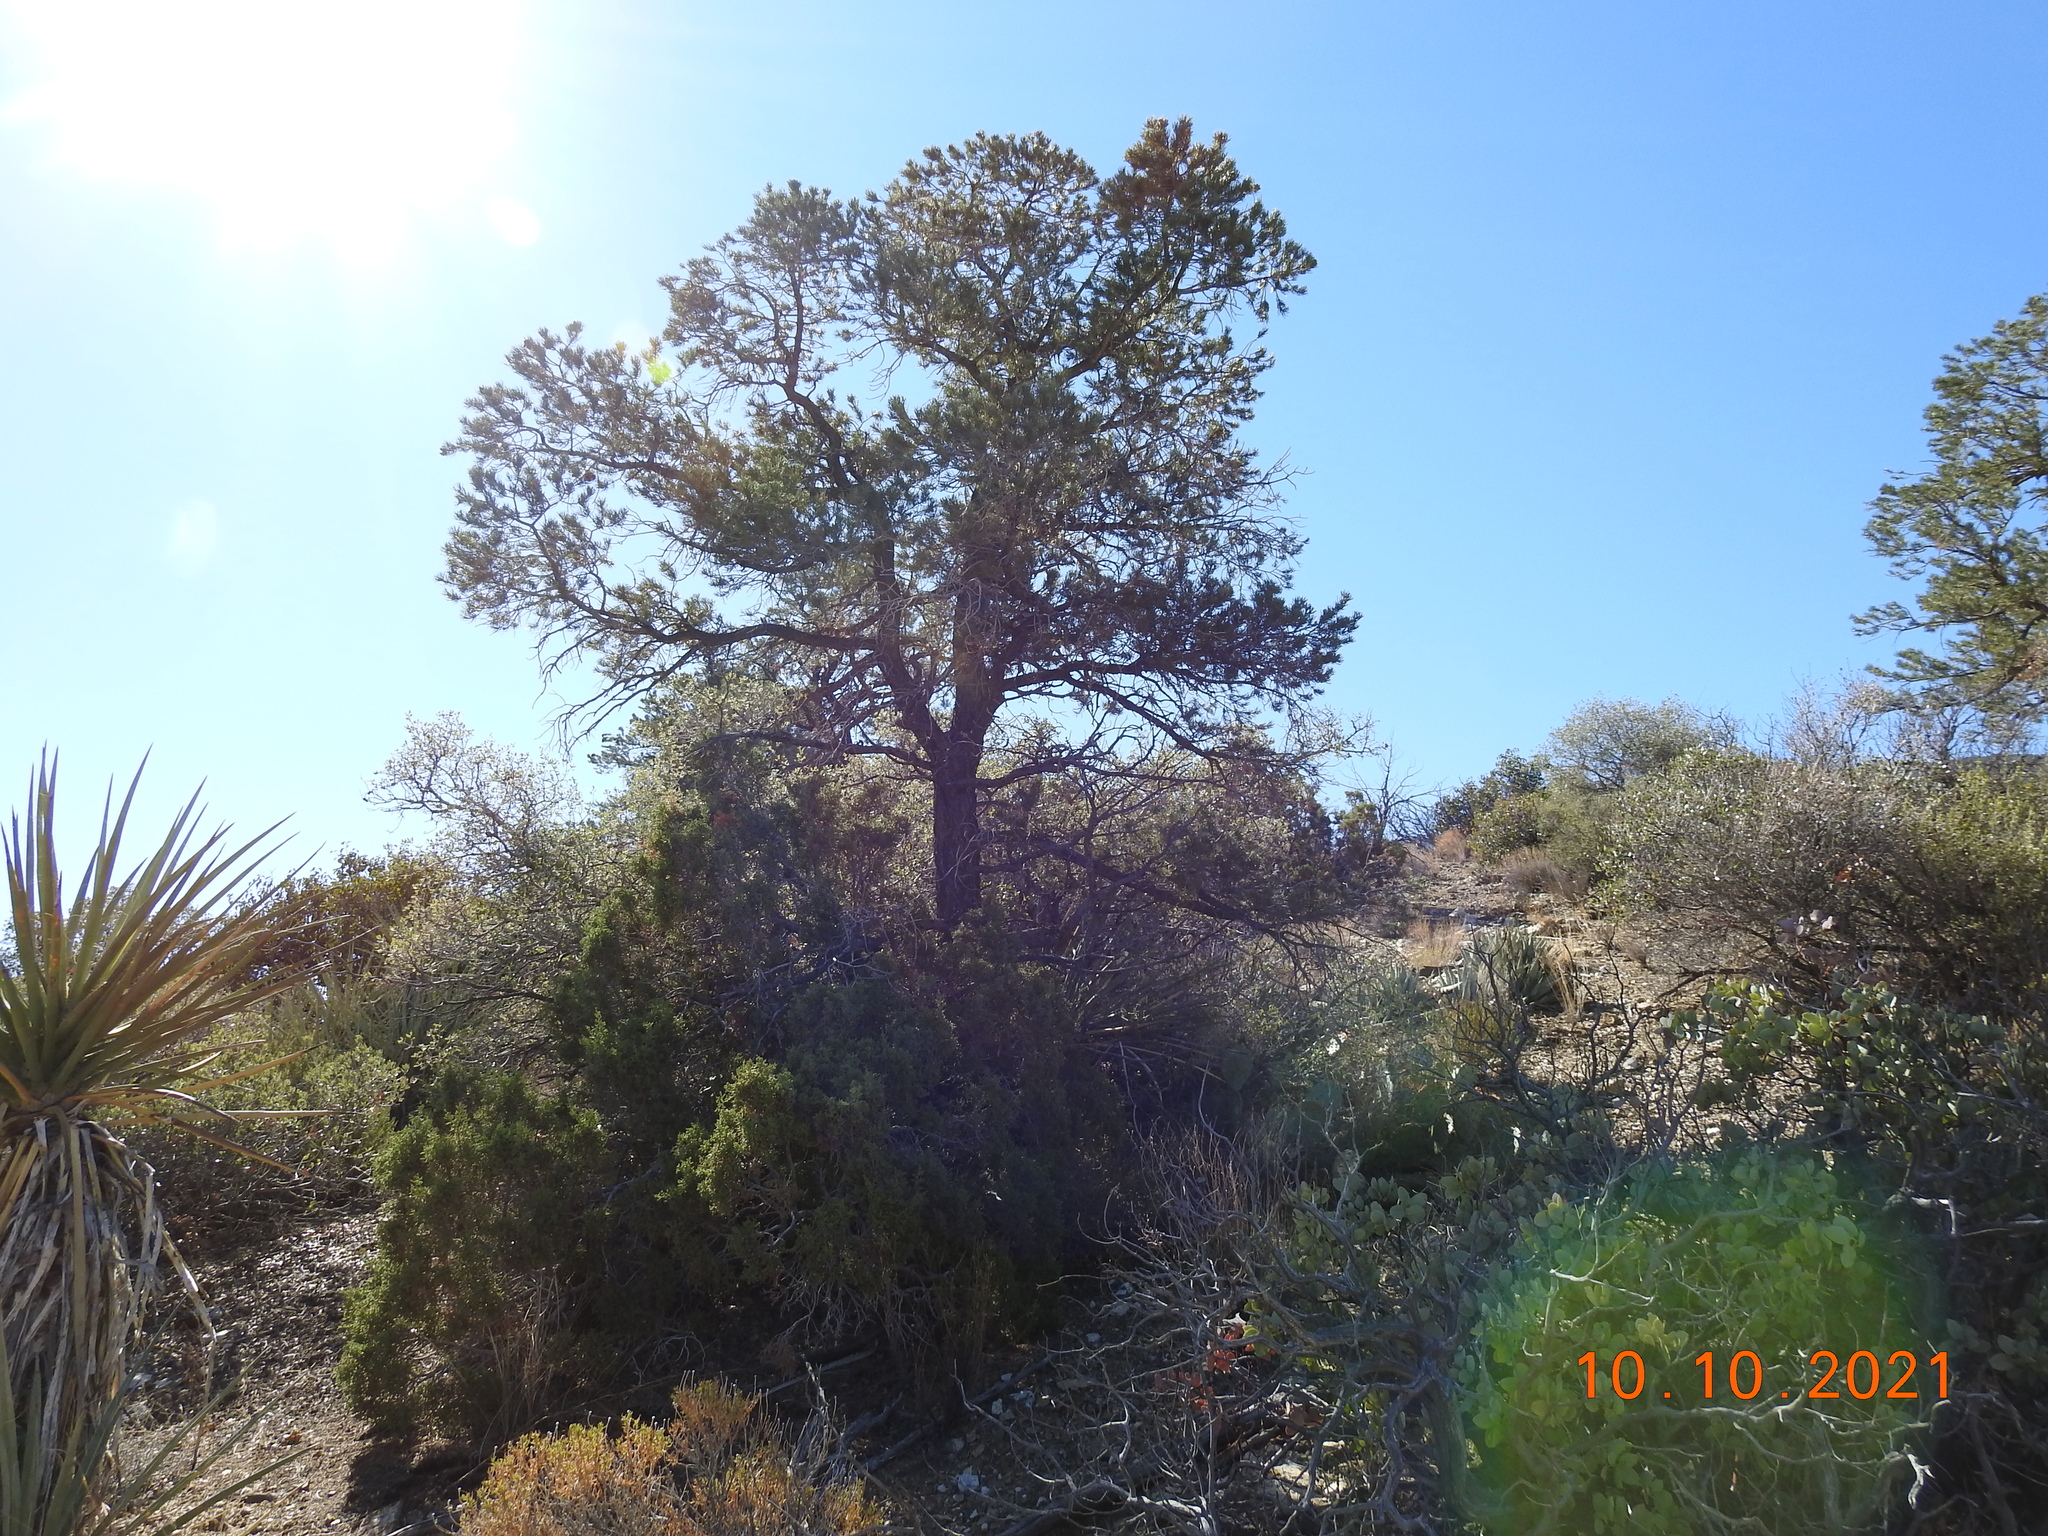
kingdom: Plantae
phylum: Tracheophyta
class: Pinopsida
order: Pinales
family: Pinaceae
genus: Pinus
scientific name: Pinus monophylla
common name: One-leaved nut pine
